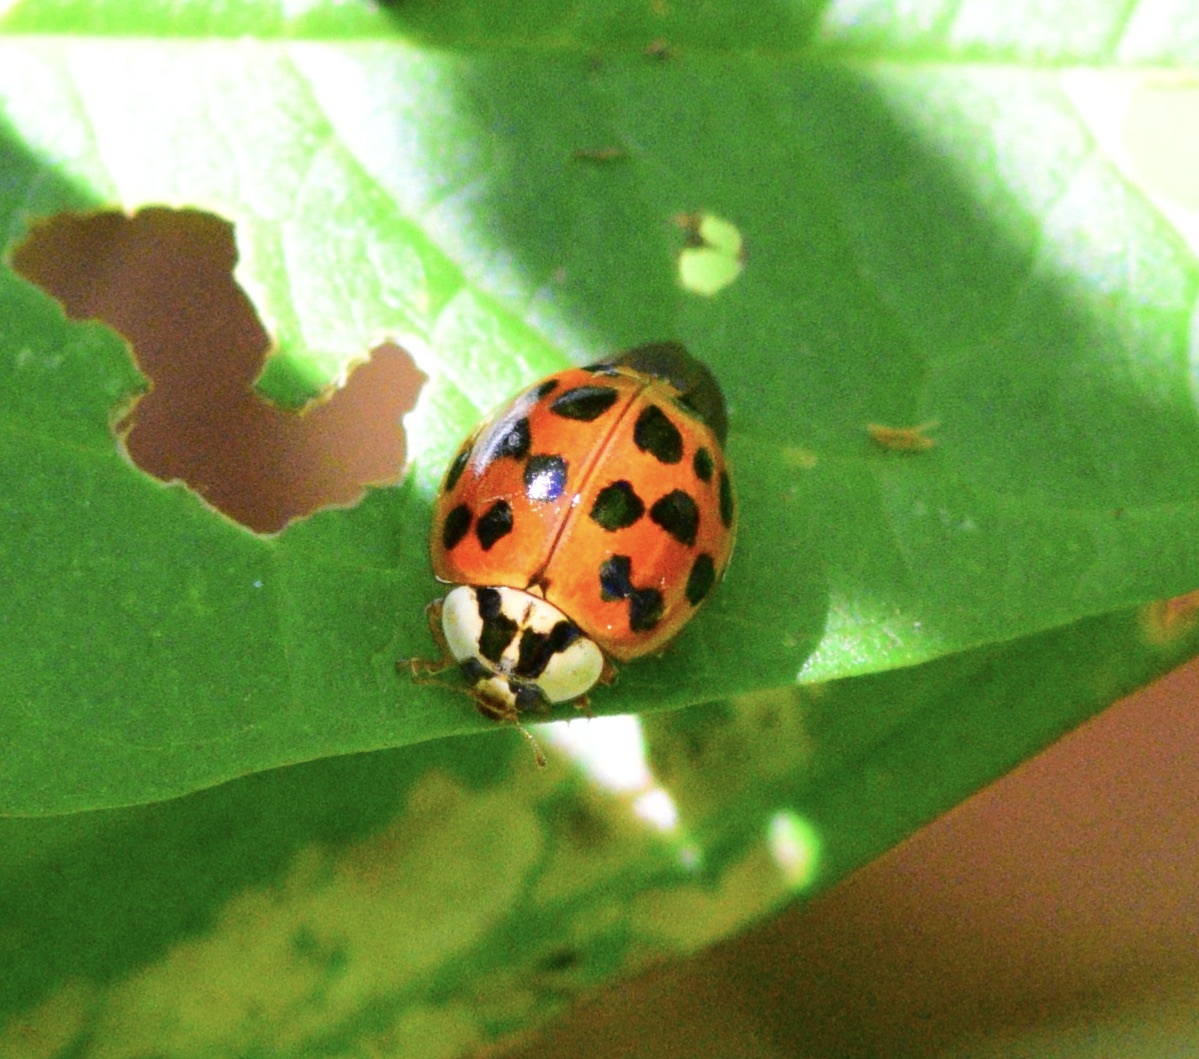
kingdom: Animalia
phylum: Arthropoda
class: Insecta
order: Coleoptera
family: Coccinellidae
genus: Harmonia
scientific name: Harmonia axyridis
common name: Harlequin ladybird
